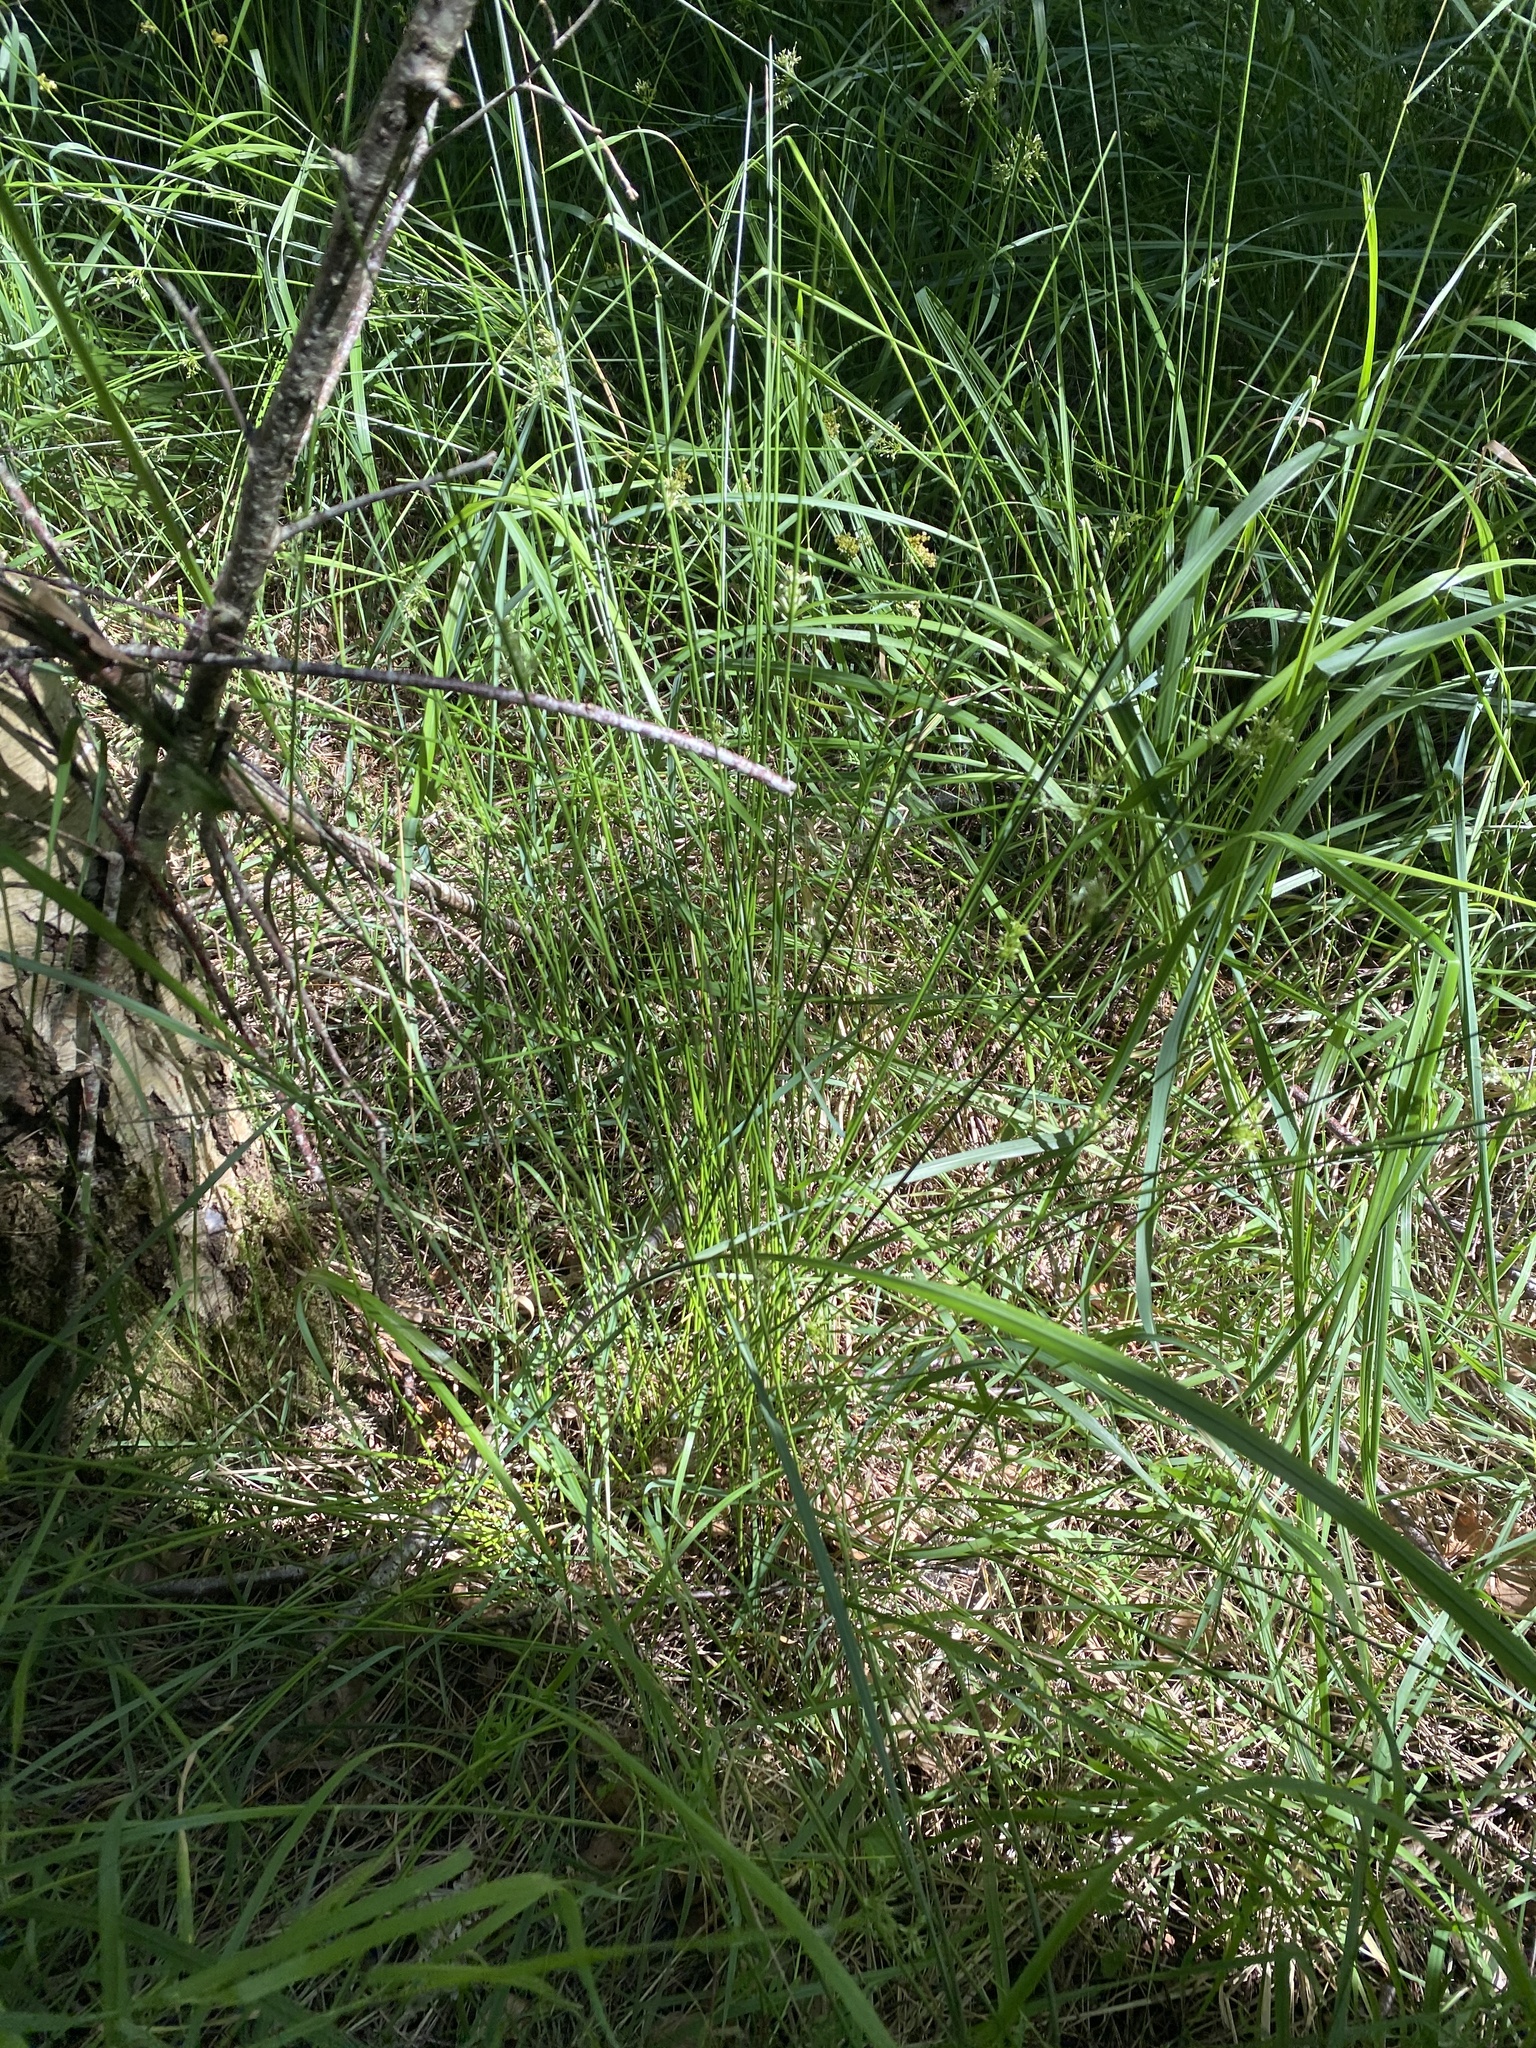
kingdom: Plantae
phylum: Tracheophyta
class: Liliopsida
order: Poales
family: Juncaceae
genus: Juncus
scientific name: Juncus effusus
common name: Soft rush
